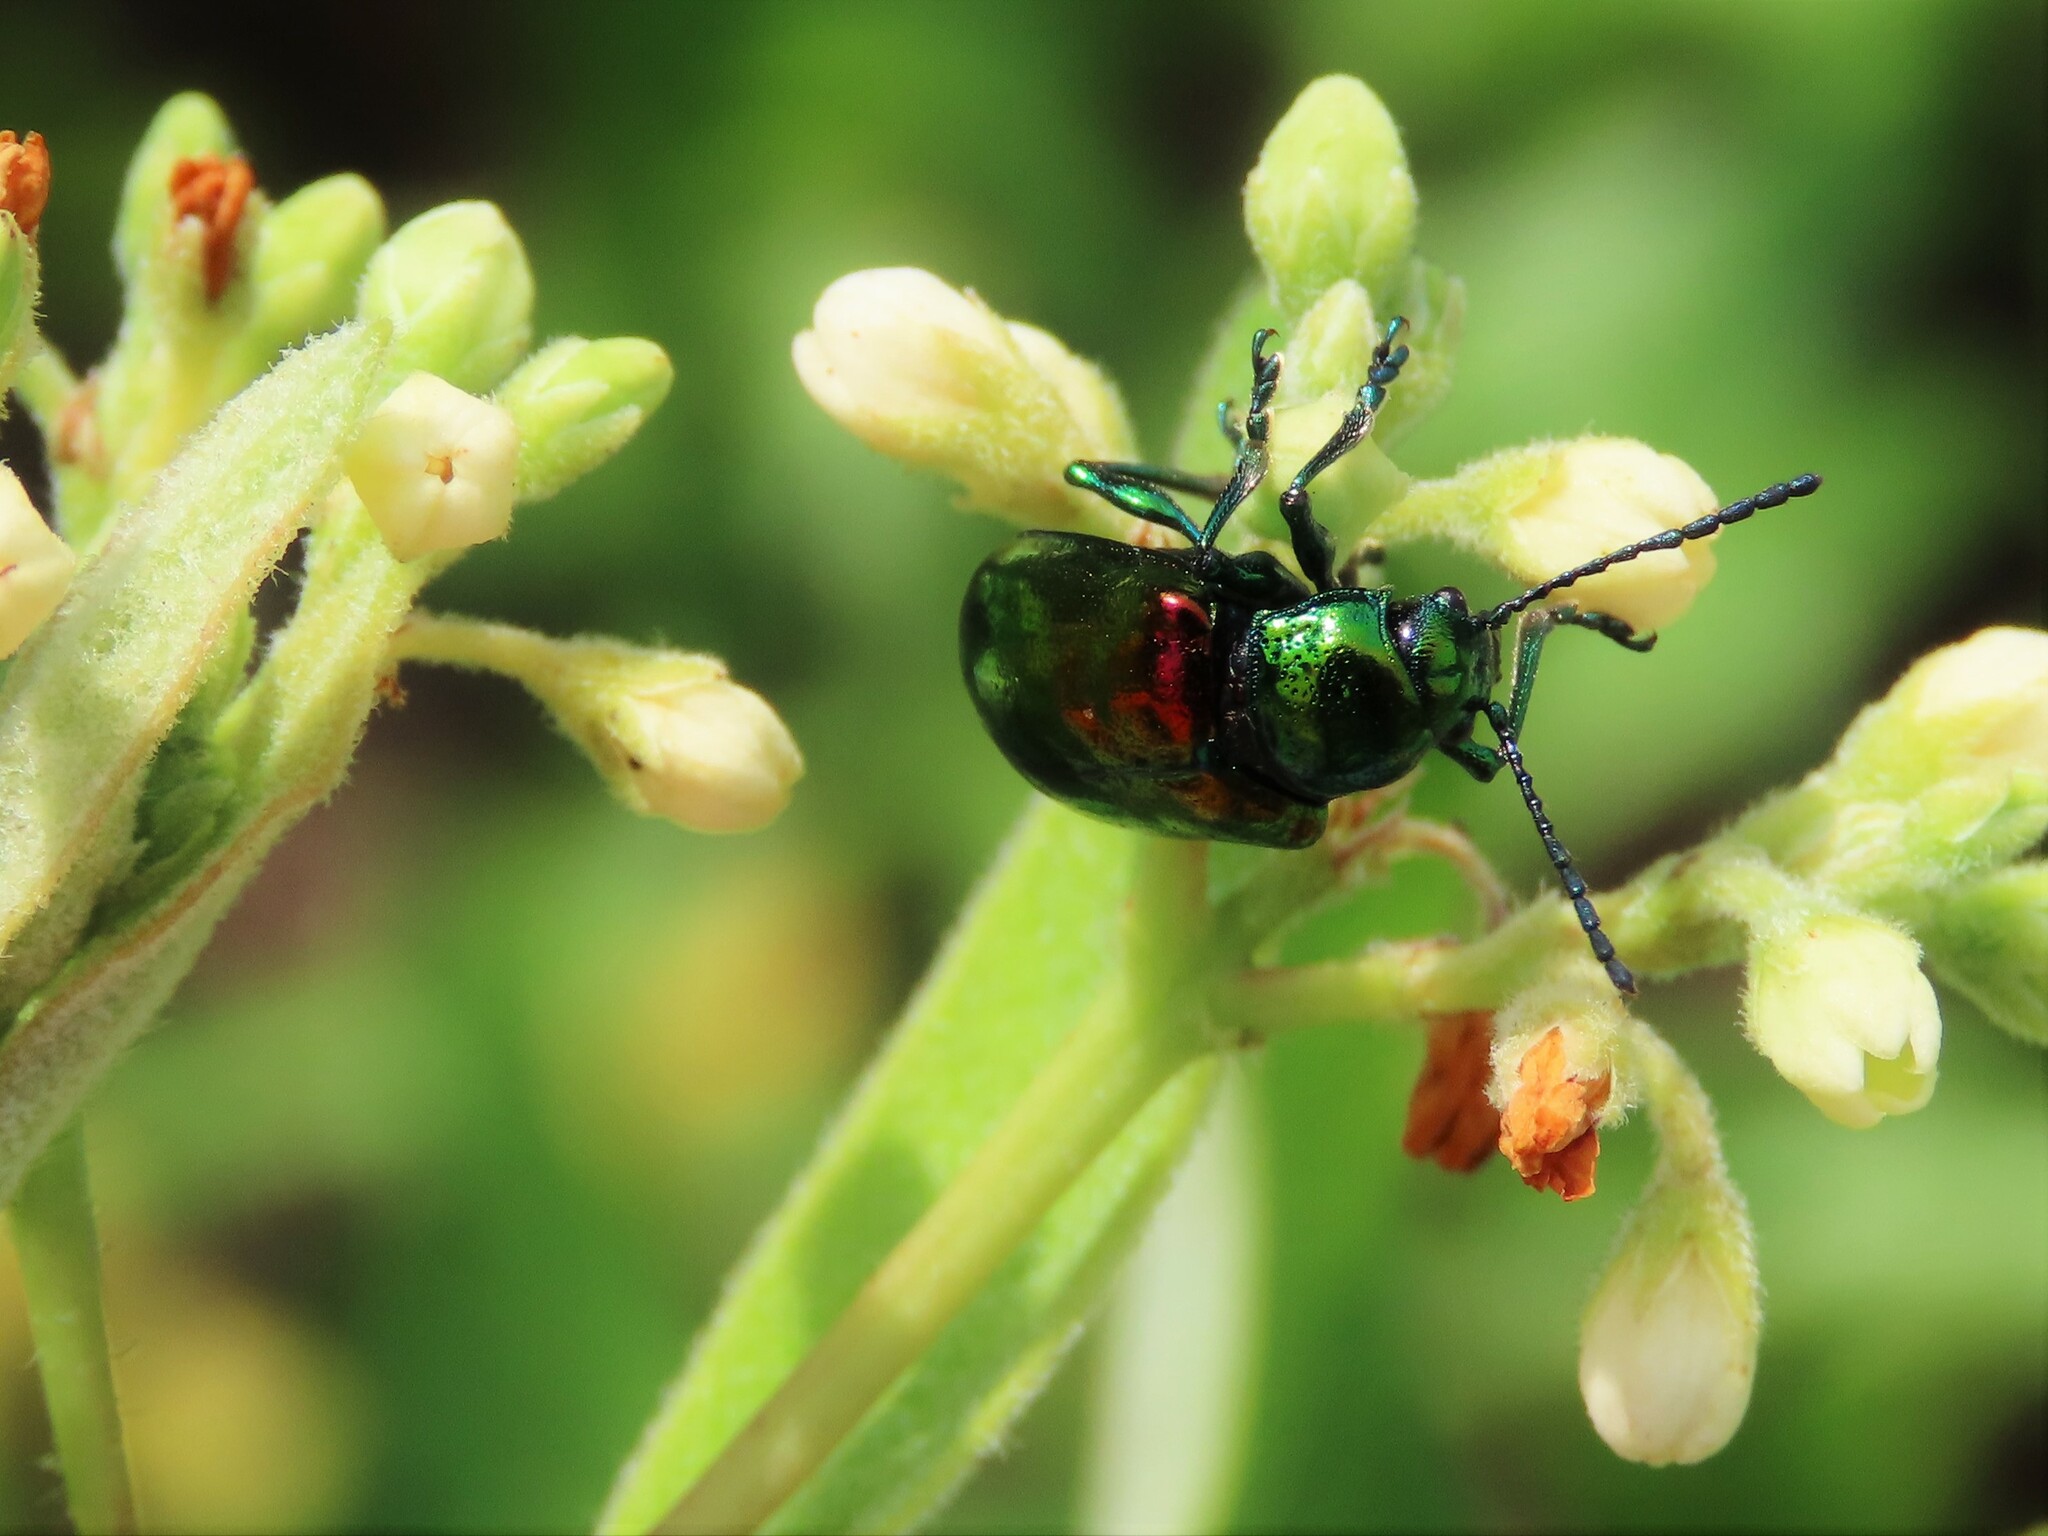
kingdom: Animalia
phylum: Arthropoda
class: Insecta
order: Coleoptera
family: Chrysomelidae
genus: Chrysochus
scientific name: Chrysochus auratus
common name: Dogbane leaf beetle
